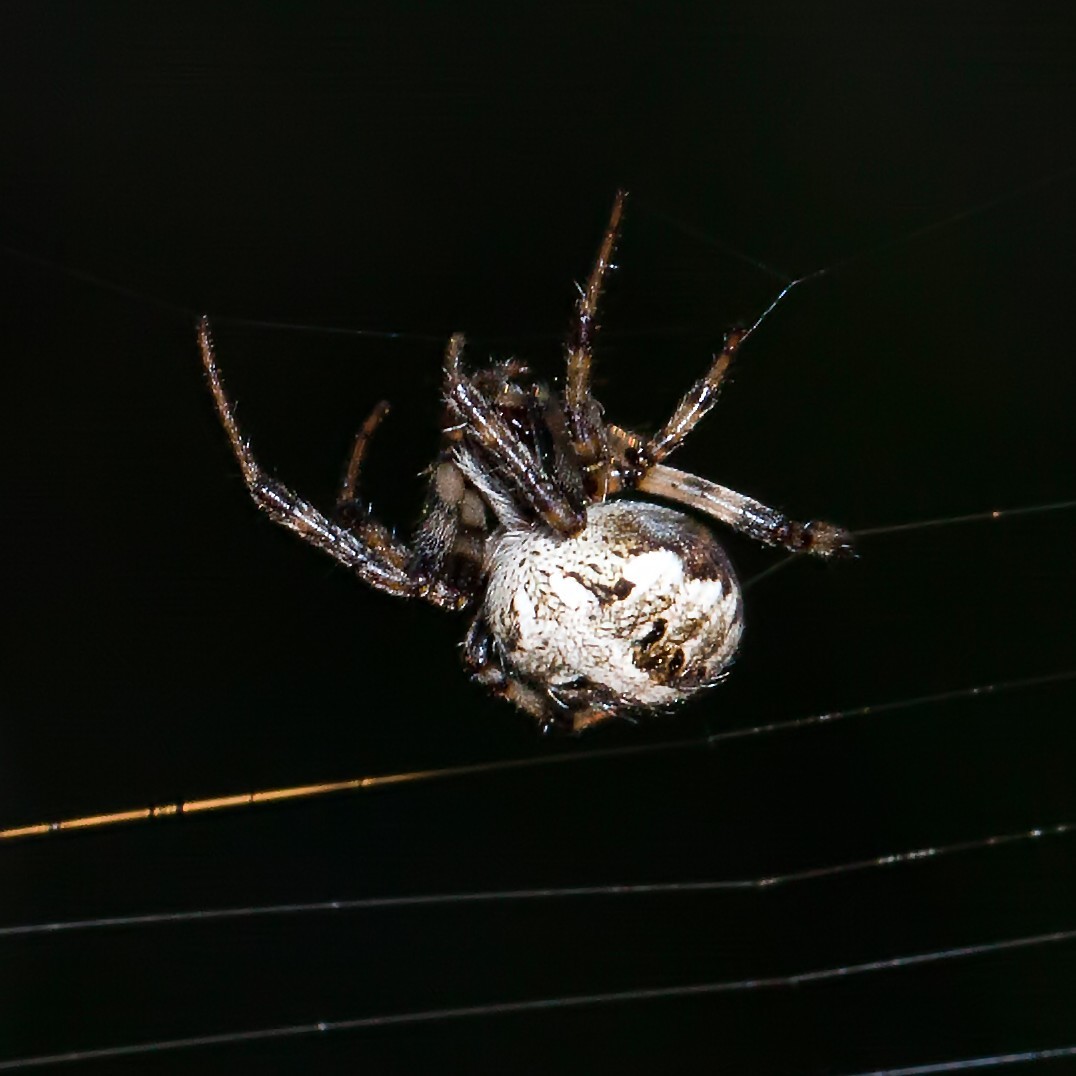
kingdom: Animalia
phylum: Arthropoda
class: Arachnida
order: Araneae
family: Araneidae
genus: Neoscona
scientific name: Neoscona arabesca
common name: Orb weavers
